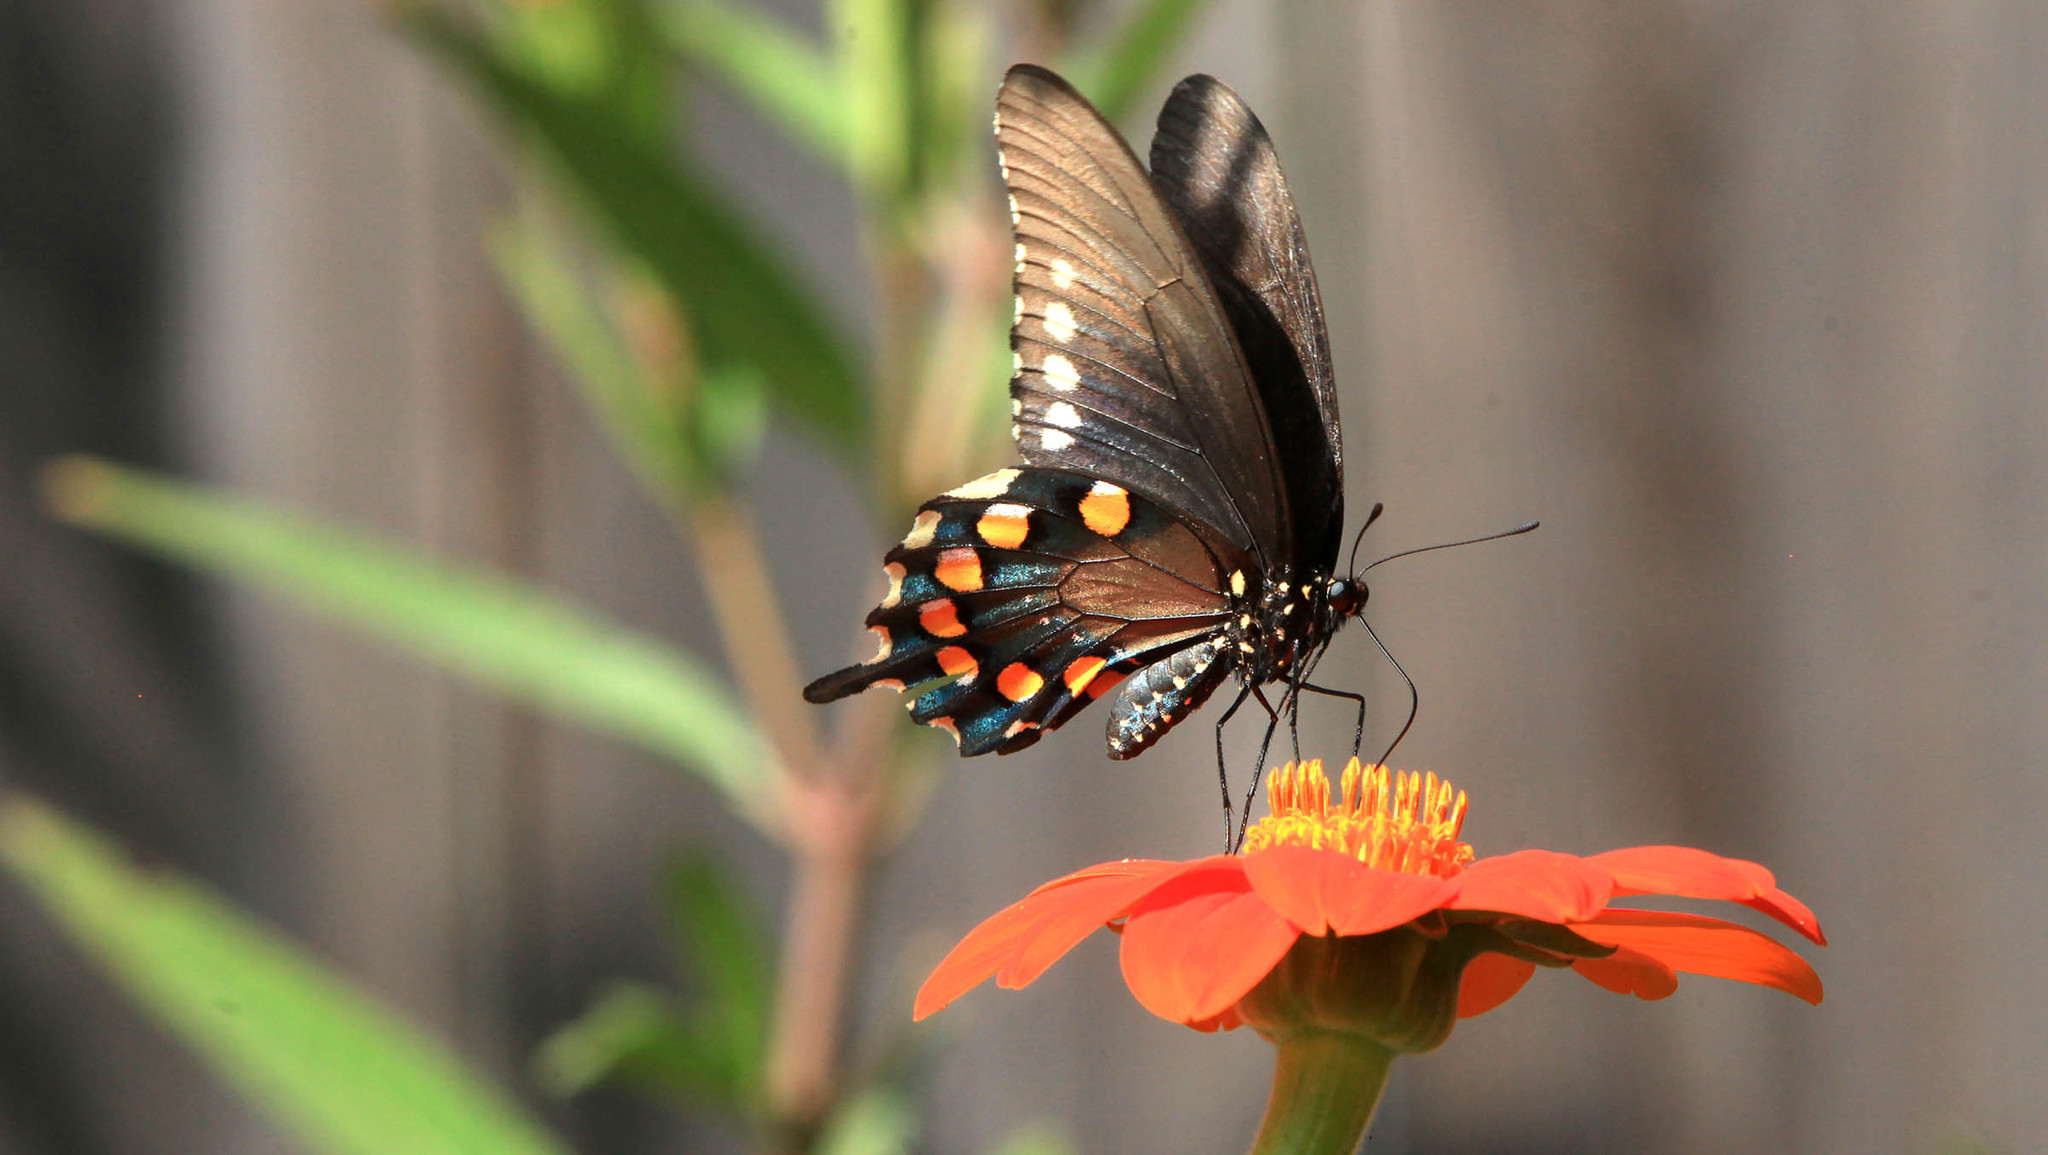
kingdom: Animalia
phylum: Arthropoda
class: Insecta
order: Lepidoptera
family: Papilionidae
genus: Battus
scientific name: Battus philenor
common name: Pipevine swallowtail
